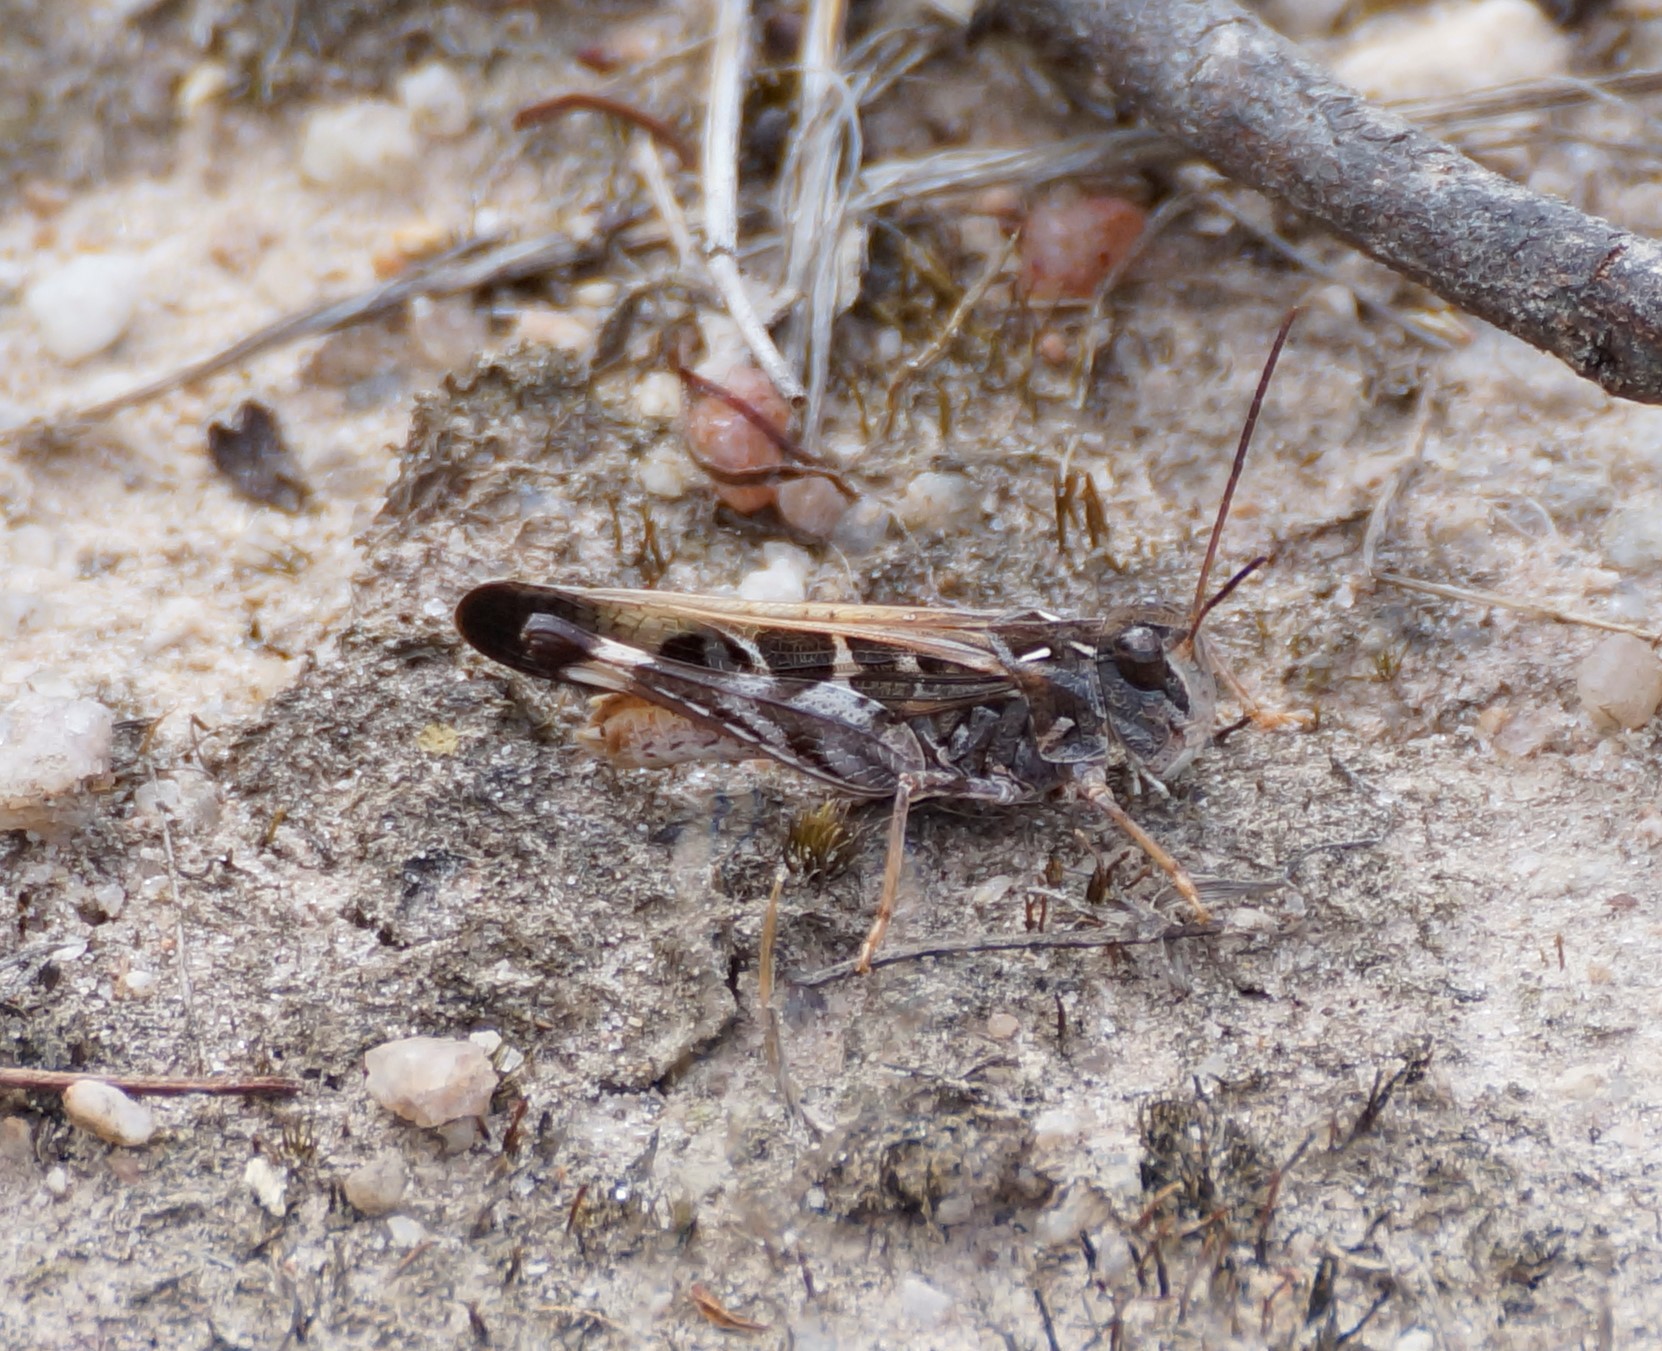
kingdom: Animalia
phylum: Arthropoda
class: Insecta
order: Orthoptera
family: Acrididae
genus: Oedaleus
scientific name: Oedaleus australis
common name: Eastern oedaleus
